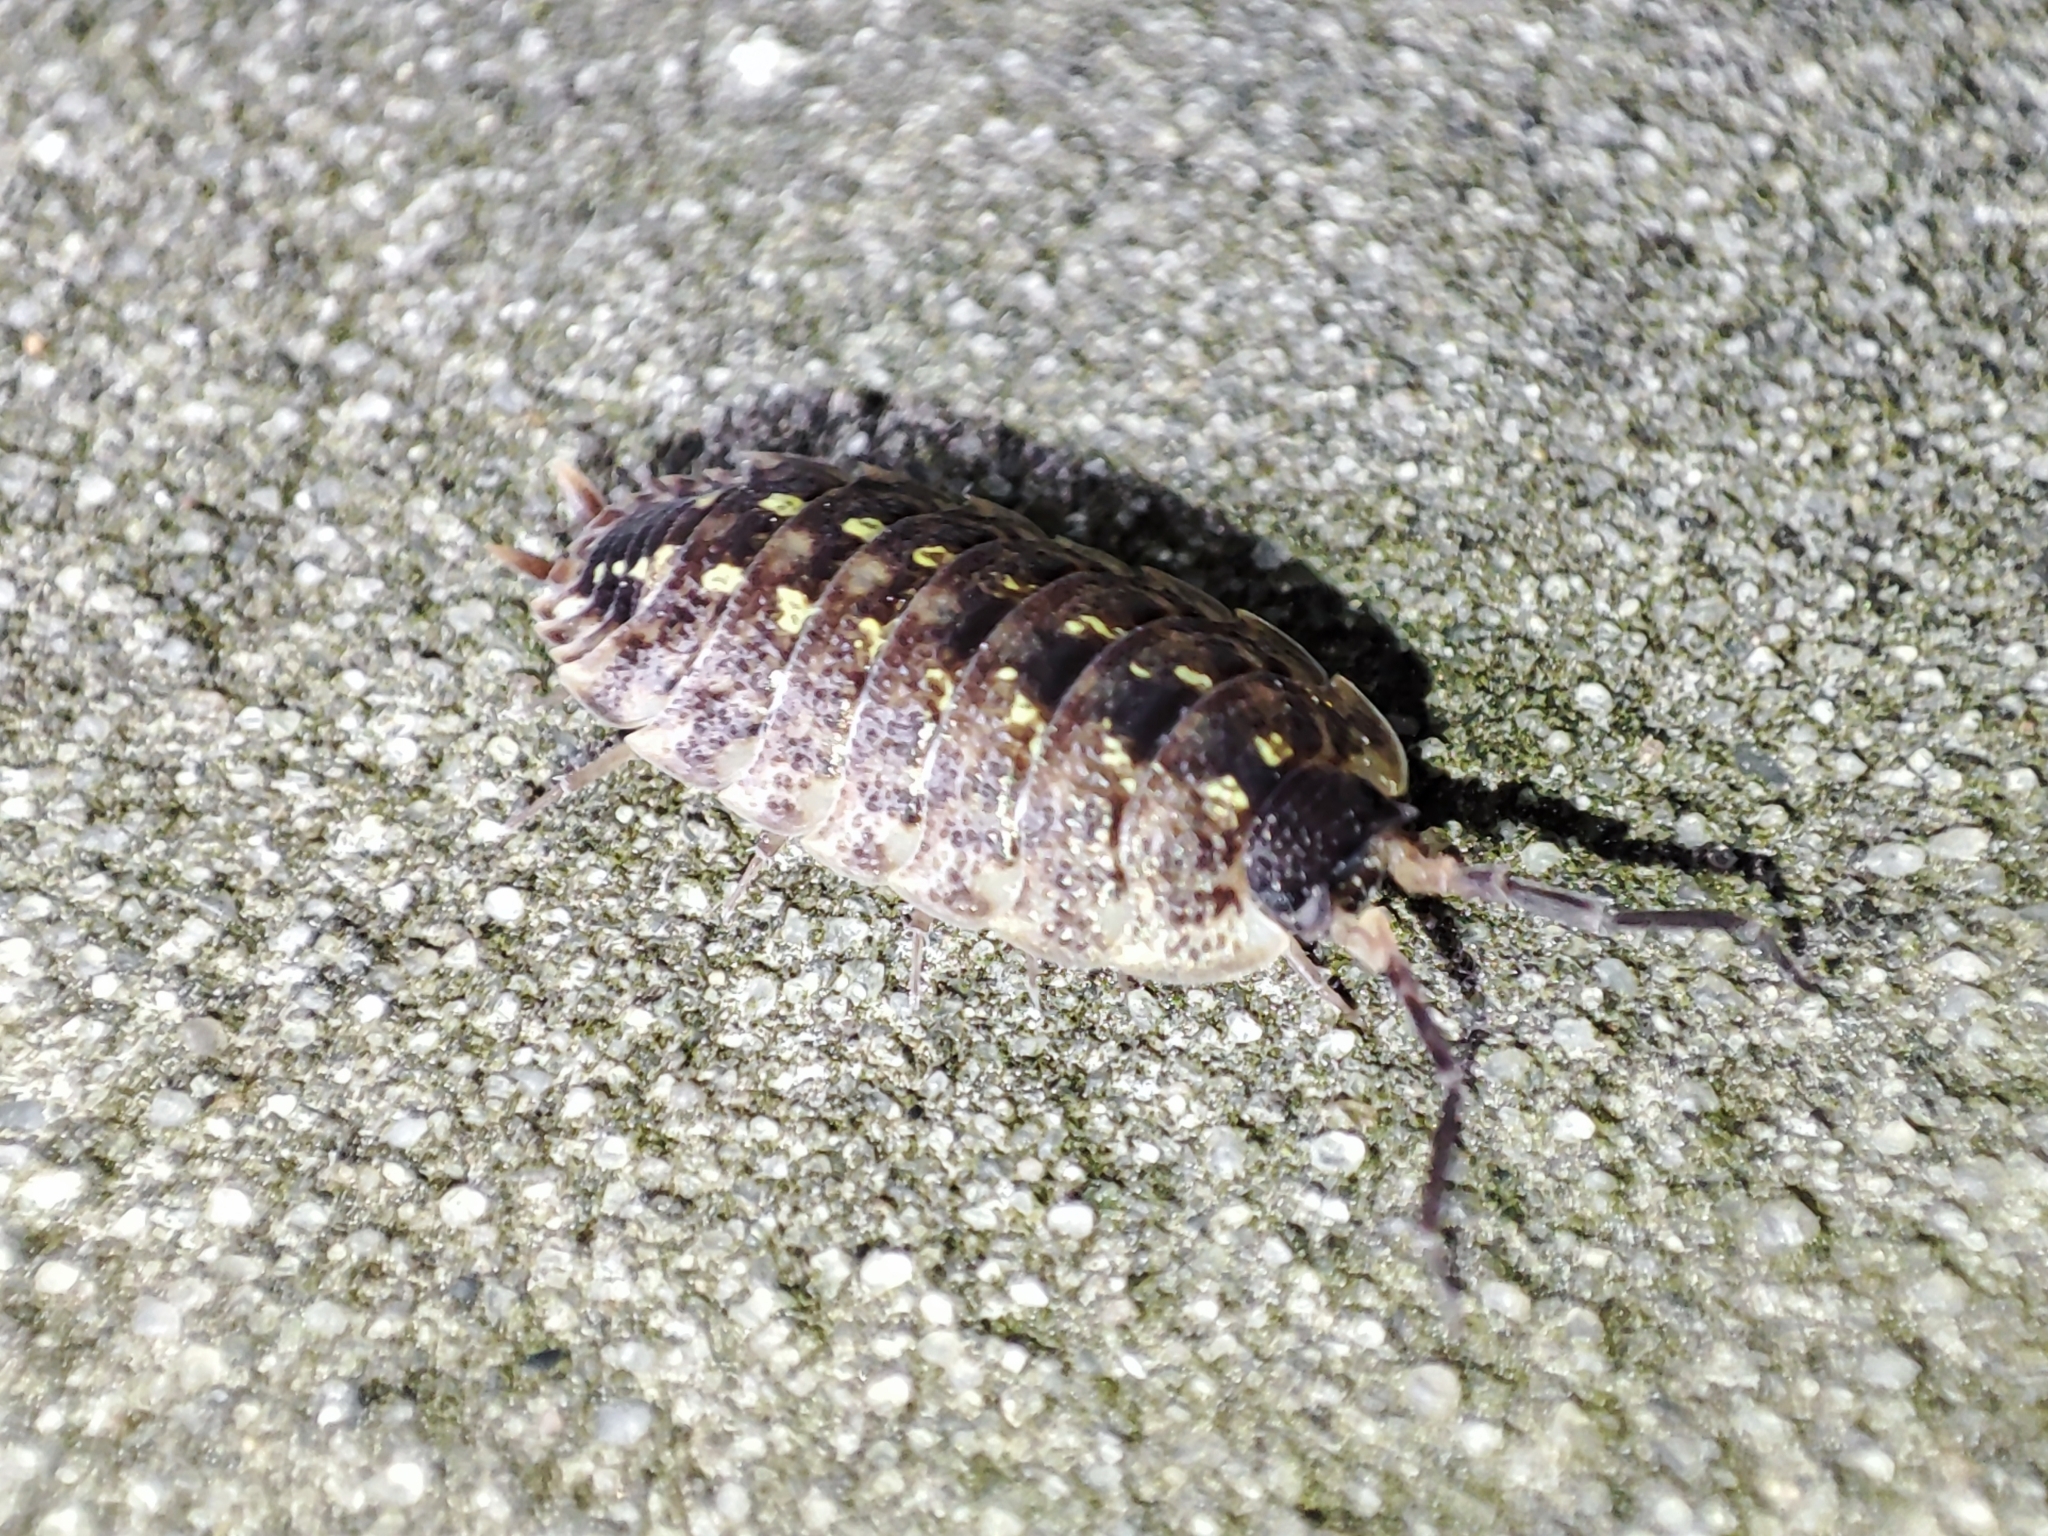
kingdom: Animalia
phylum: Arthropoda
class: Malacostraca
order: Isopoda
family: Porcellionidae
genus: Porcellio
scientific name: Porcellio spinicornis
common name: Painted woodlouse
